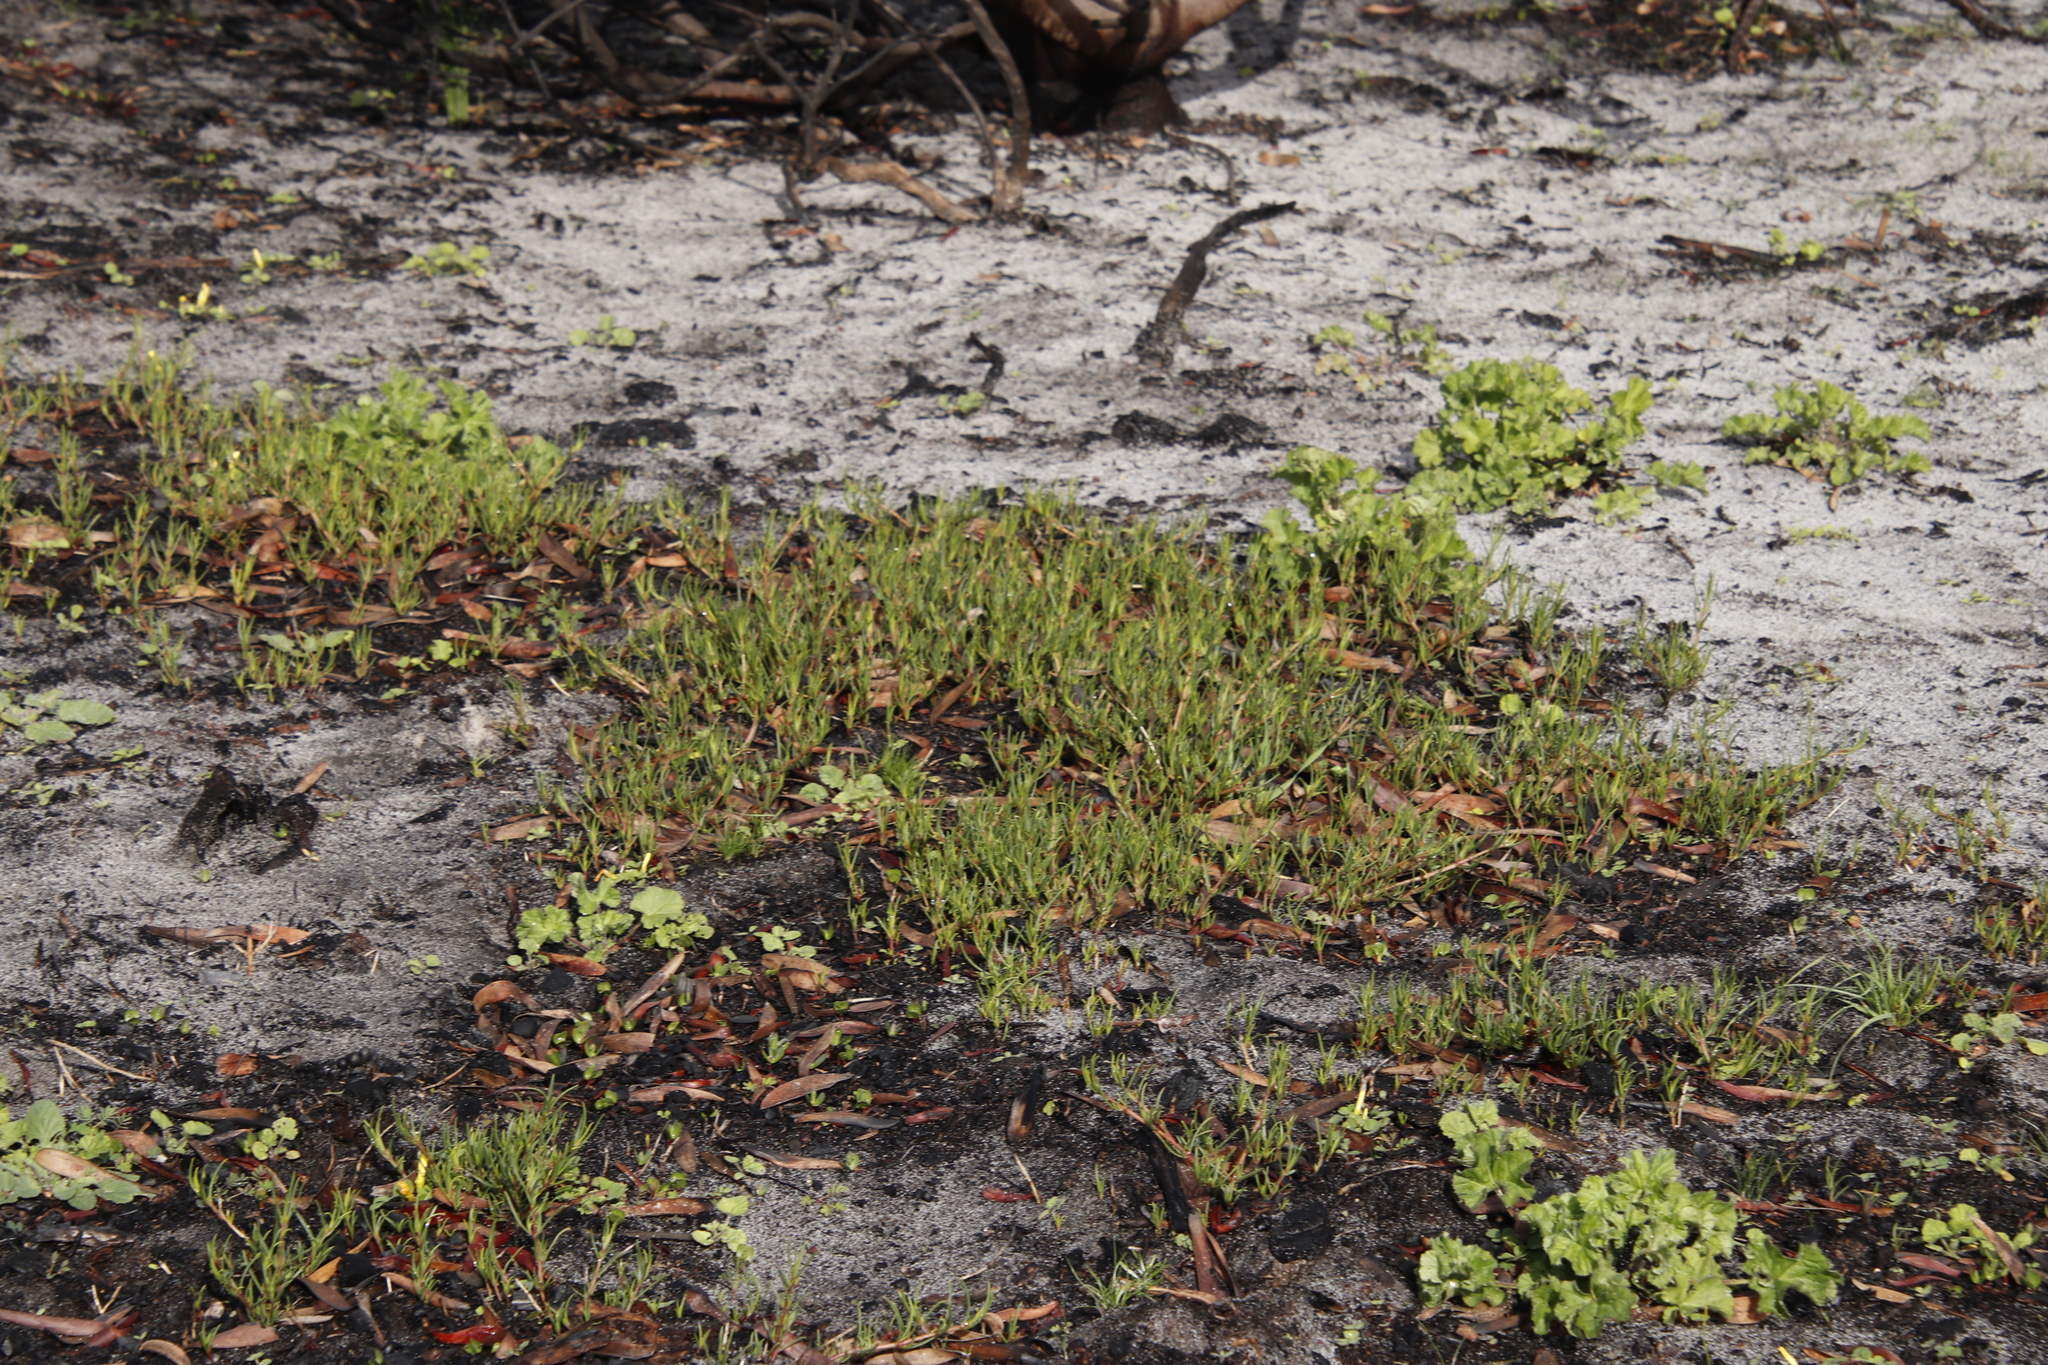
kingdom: Plantae
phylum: Tracheophyta
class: Magnoliopsida
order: Caryophyllales
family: Aizoaceae
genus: Acrosanthes
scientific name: Acrosanthes teretifolia
